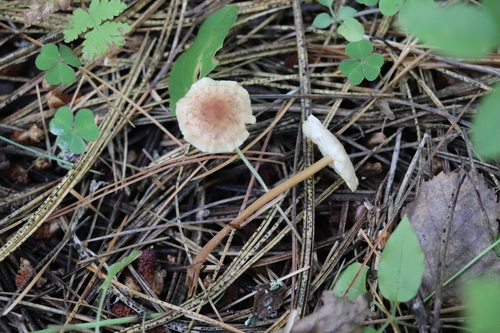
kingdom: Fungi
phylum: Basidiomycota
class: Agaricomycetes
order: Agaricales
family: Omphalotaceae
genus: Gymnopus
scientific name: Gymnopus dryophilus
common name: Penny top
